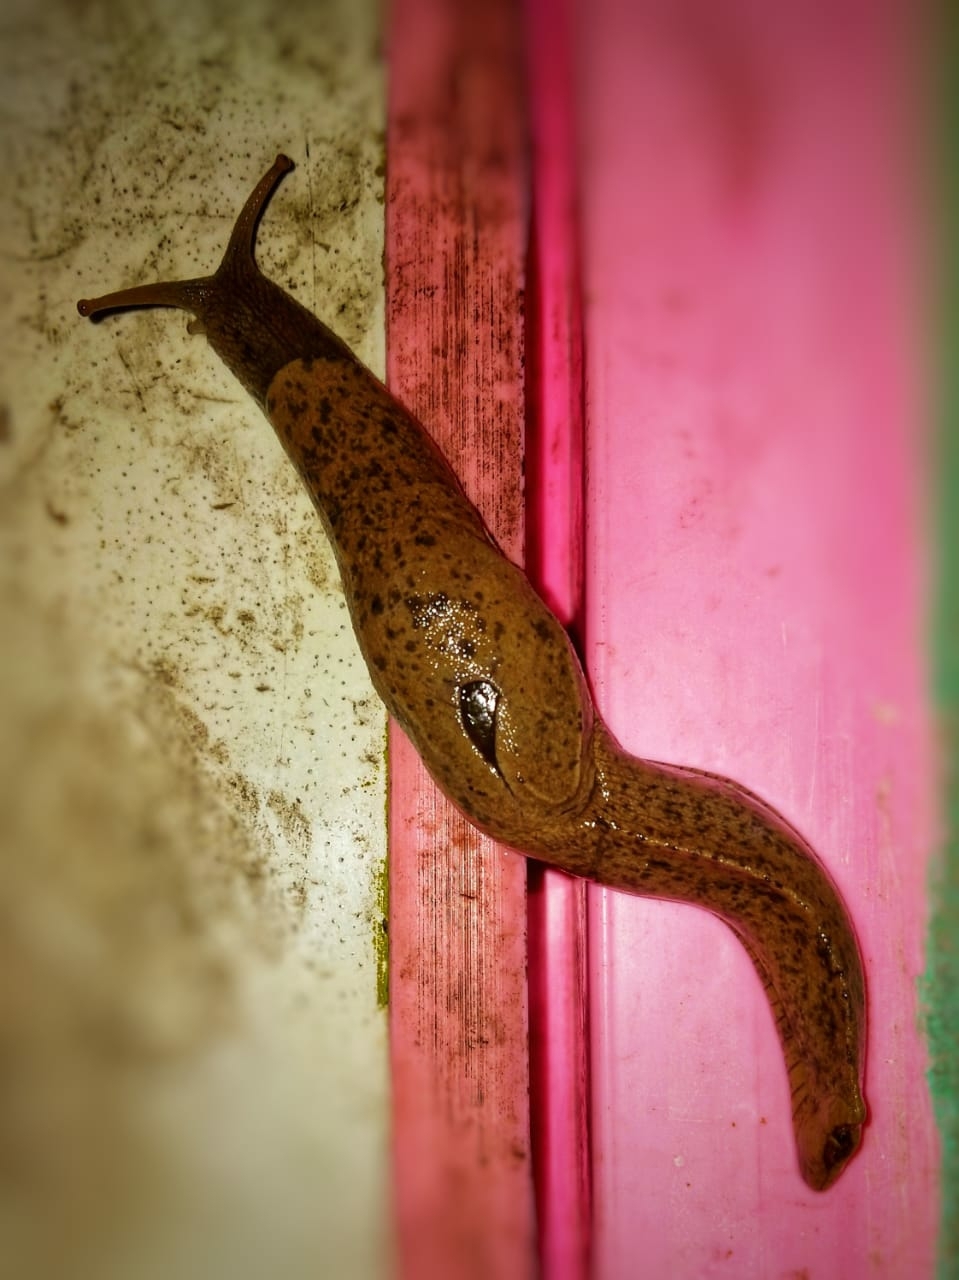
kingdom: Animalia
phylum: Mollusca
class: Gastropoda
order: Stylommatophora
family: Helicarionidae
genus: Girasia
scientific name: Girasia hookeri
